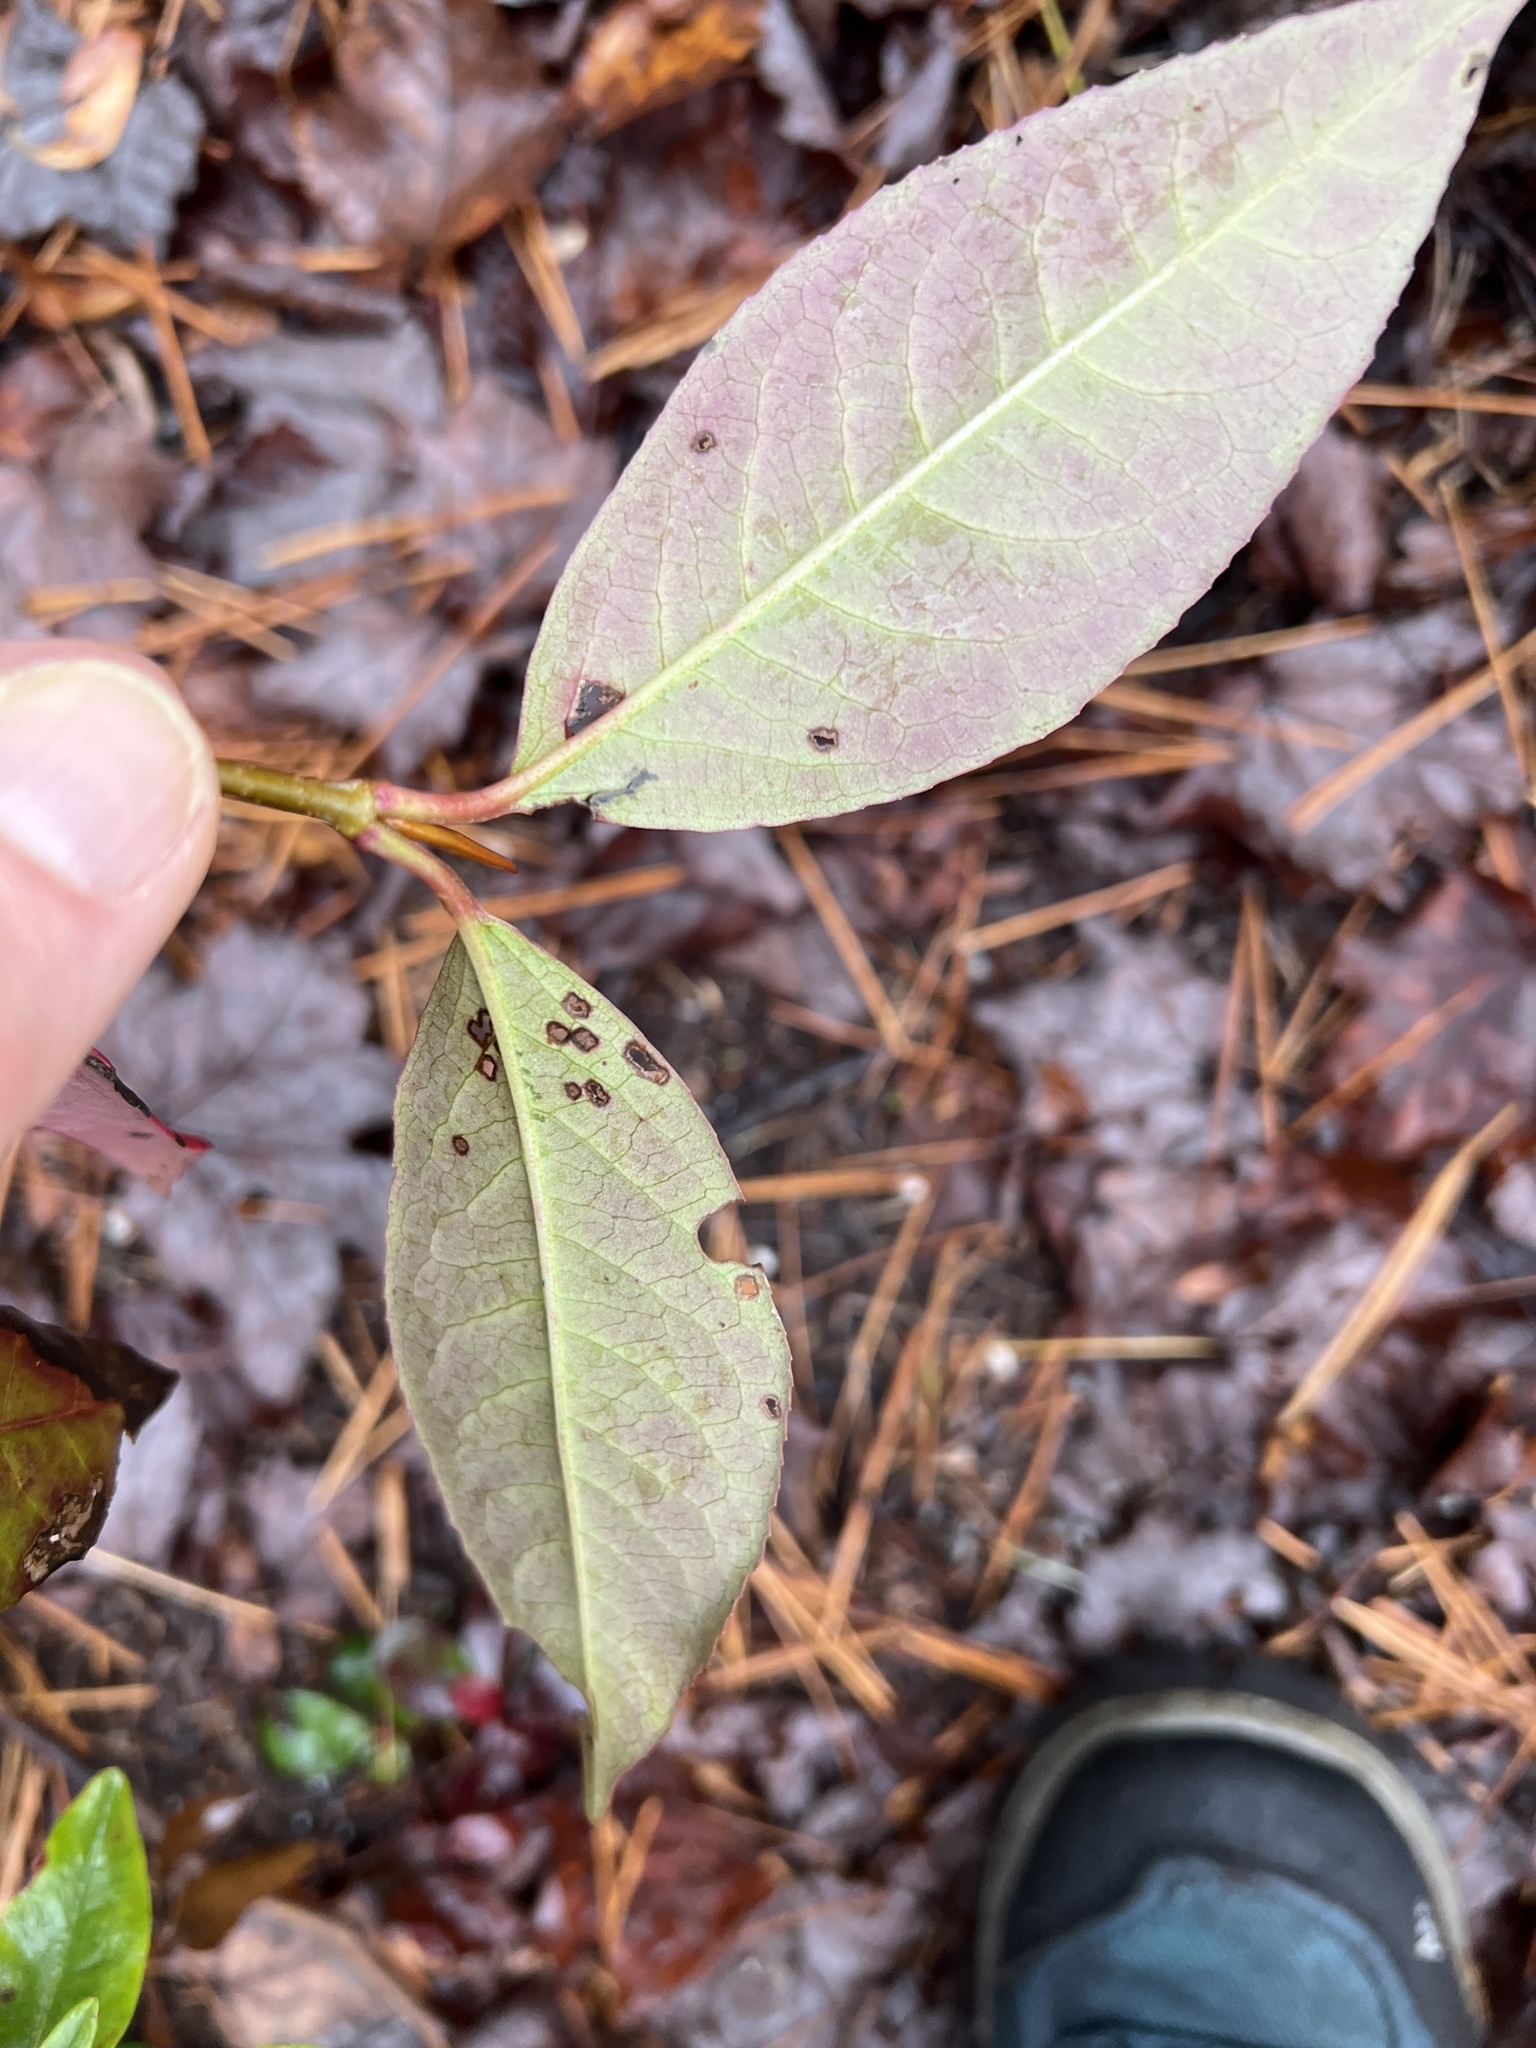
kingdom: Plantae
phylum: Tracheophyta
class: Magnoliopsida
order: Dipsacales
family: Viburnaceae
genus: Viburnum
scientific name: Viburnum cassinoides
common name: Swamp haw
